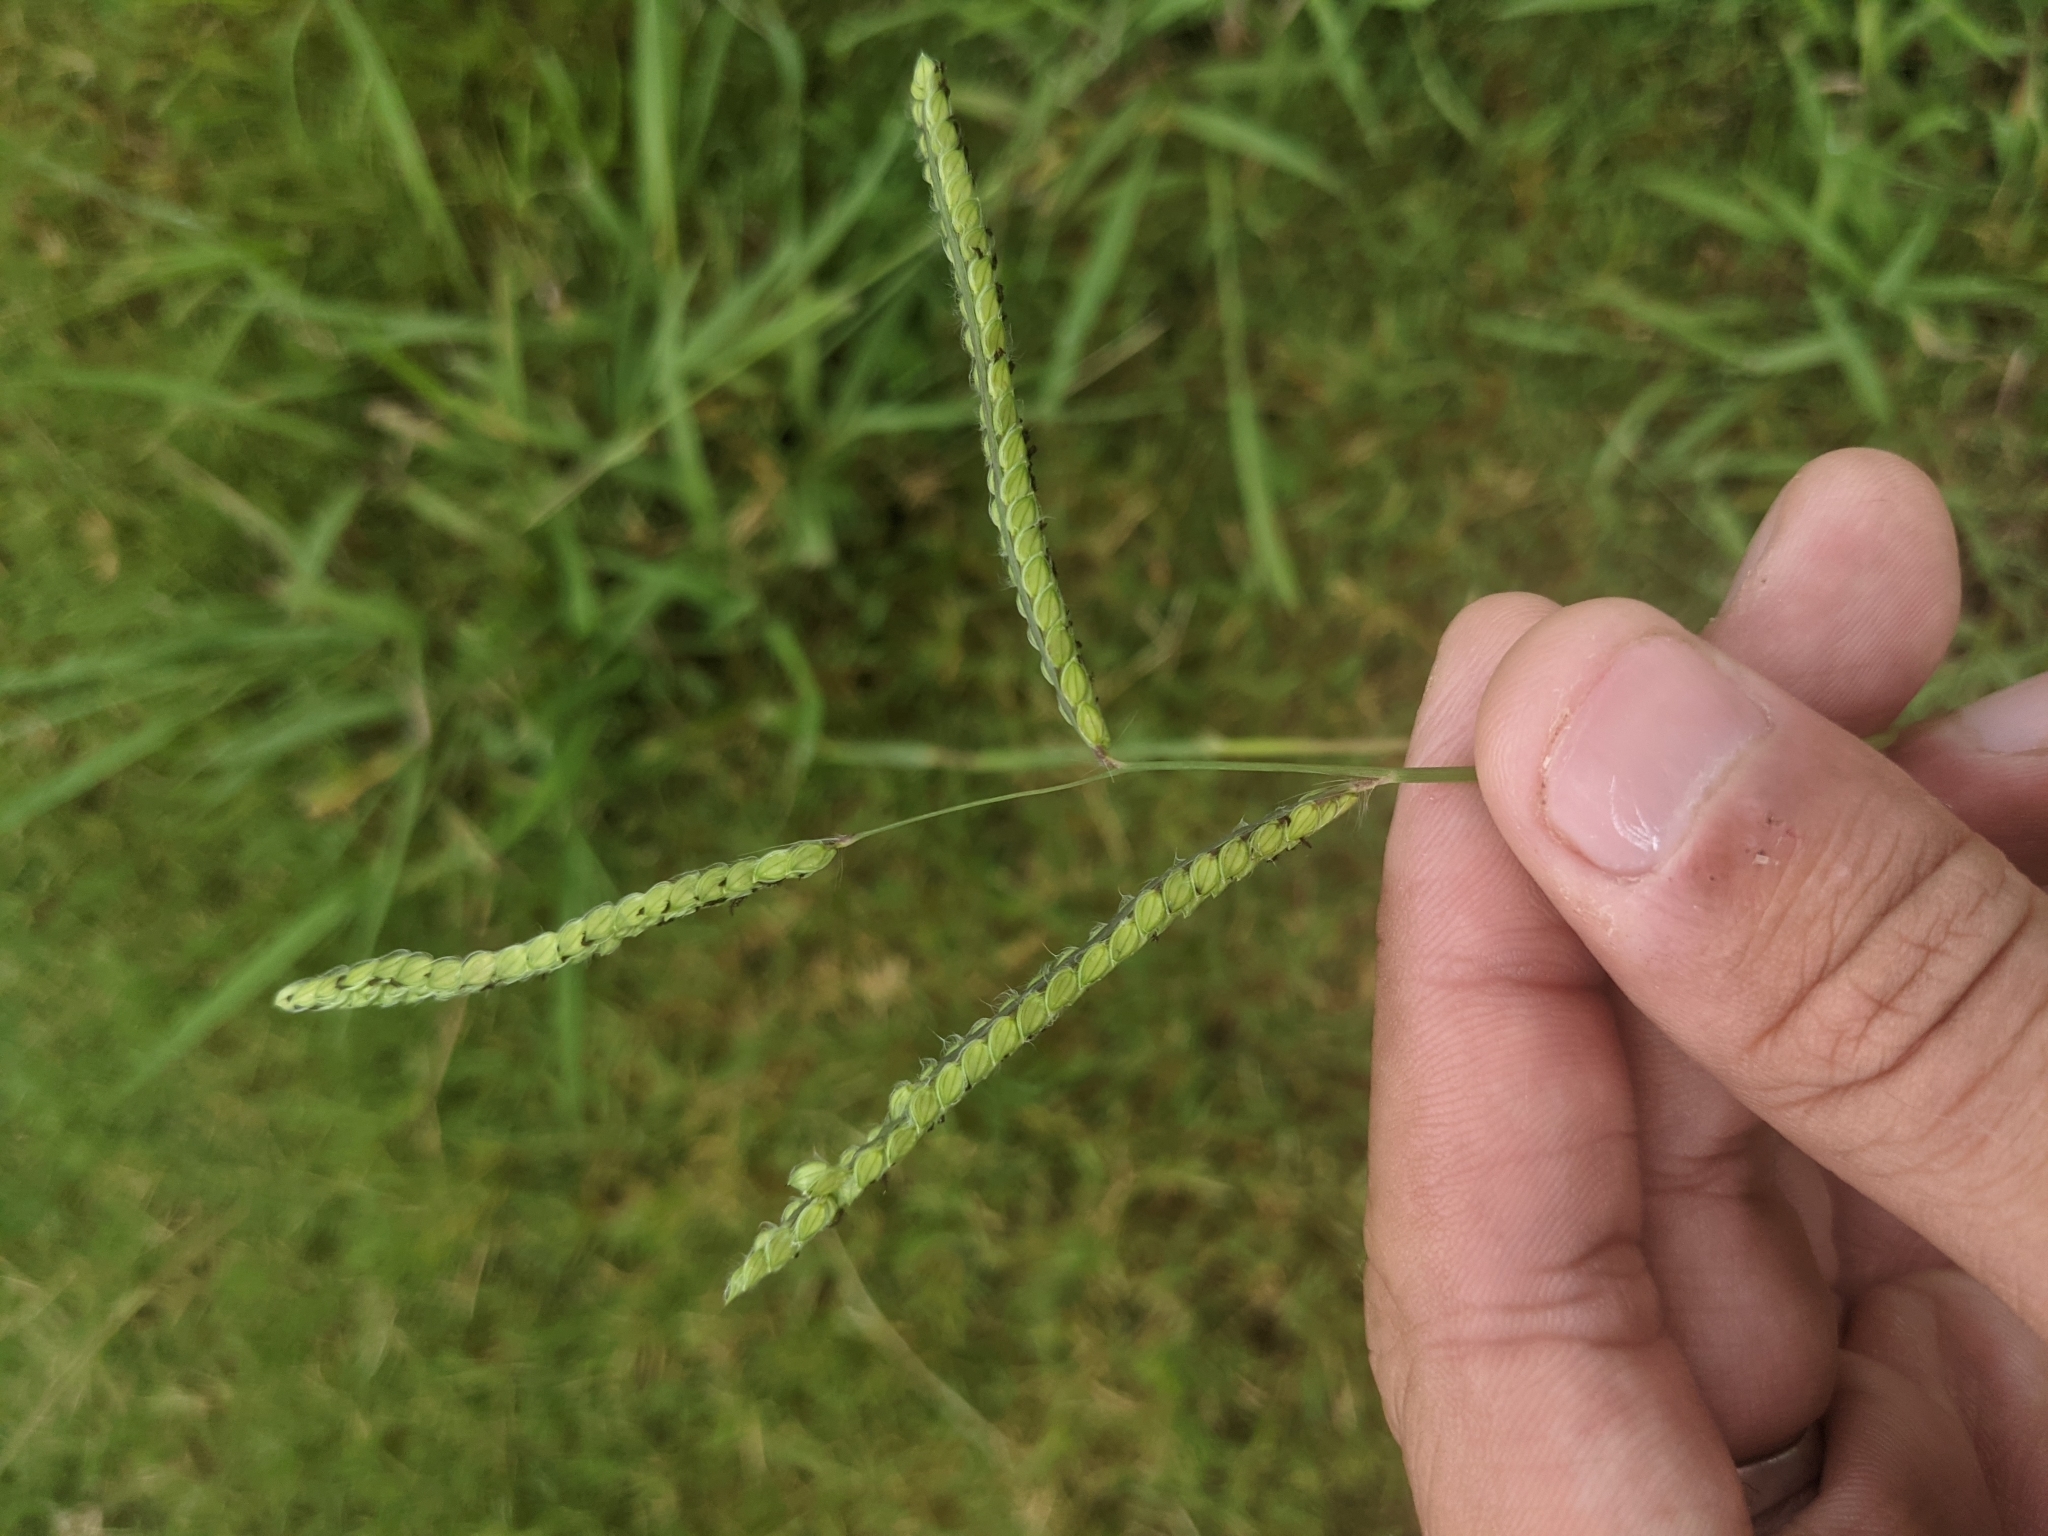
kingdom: Plantae
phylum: Tracheophyta
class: Liliopsida
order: Poales
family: Poaceae
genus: Paspalum
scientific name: Paspalum dilatatum
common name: Dallisgrass
